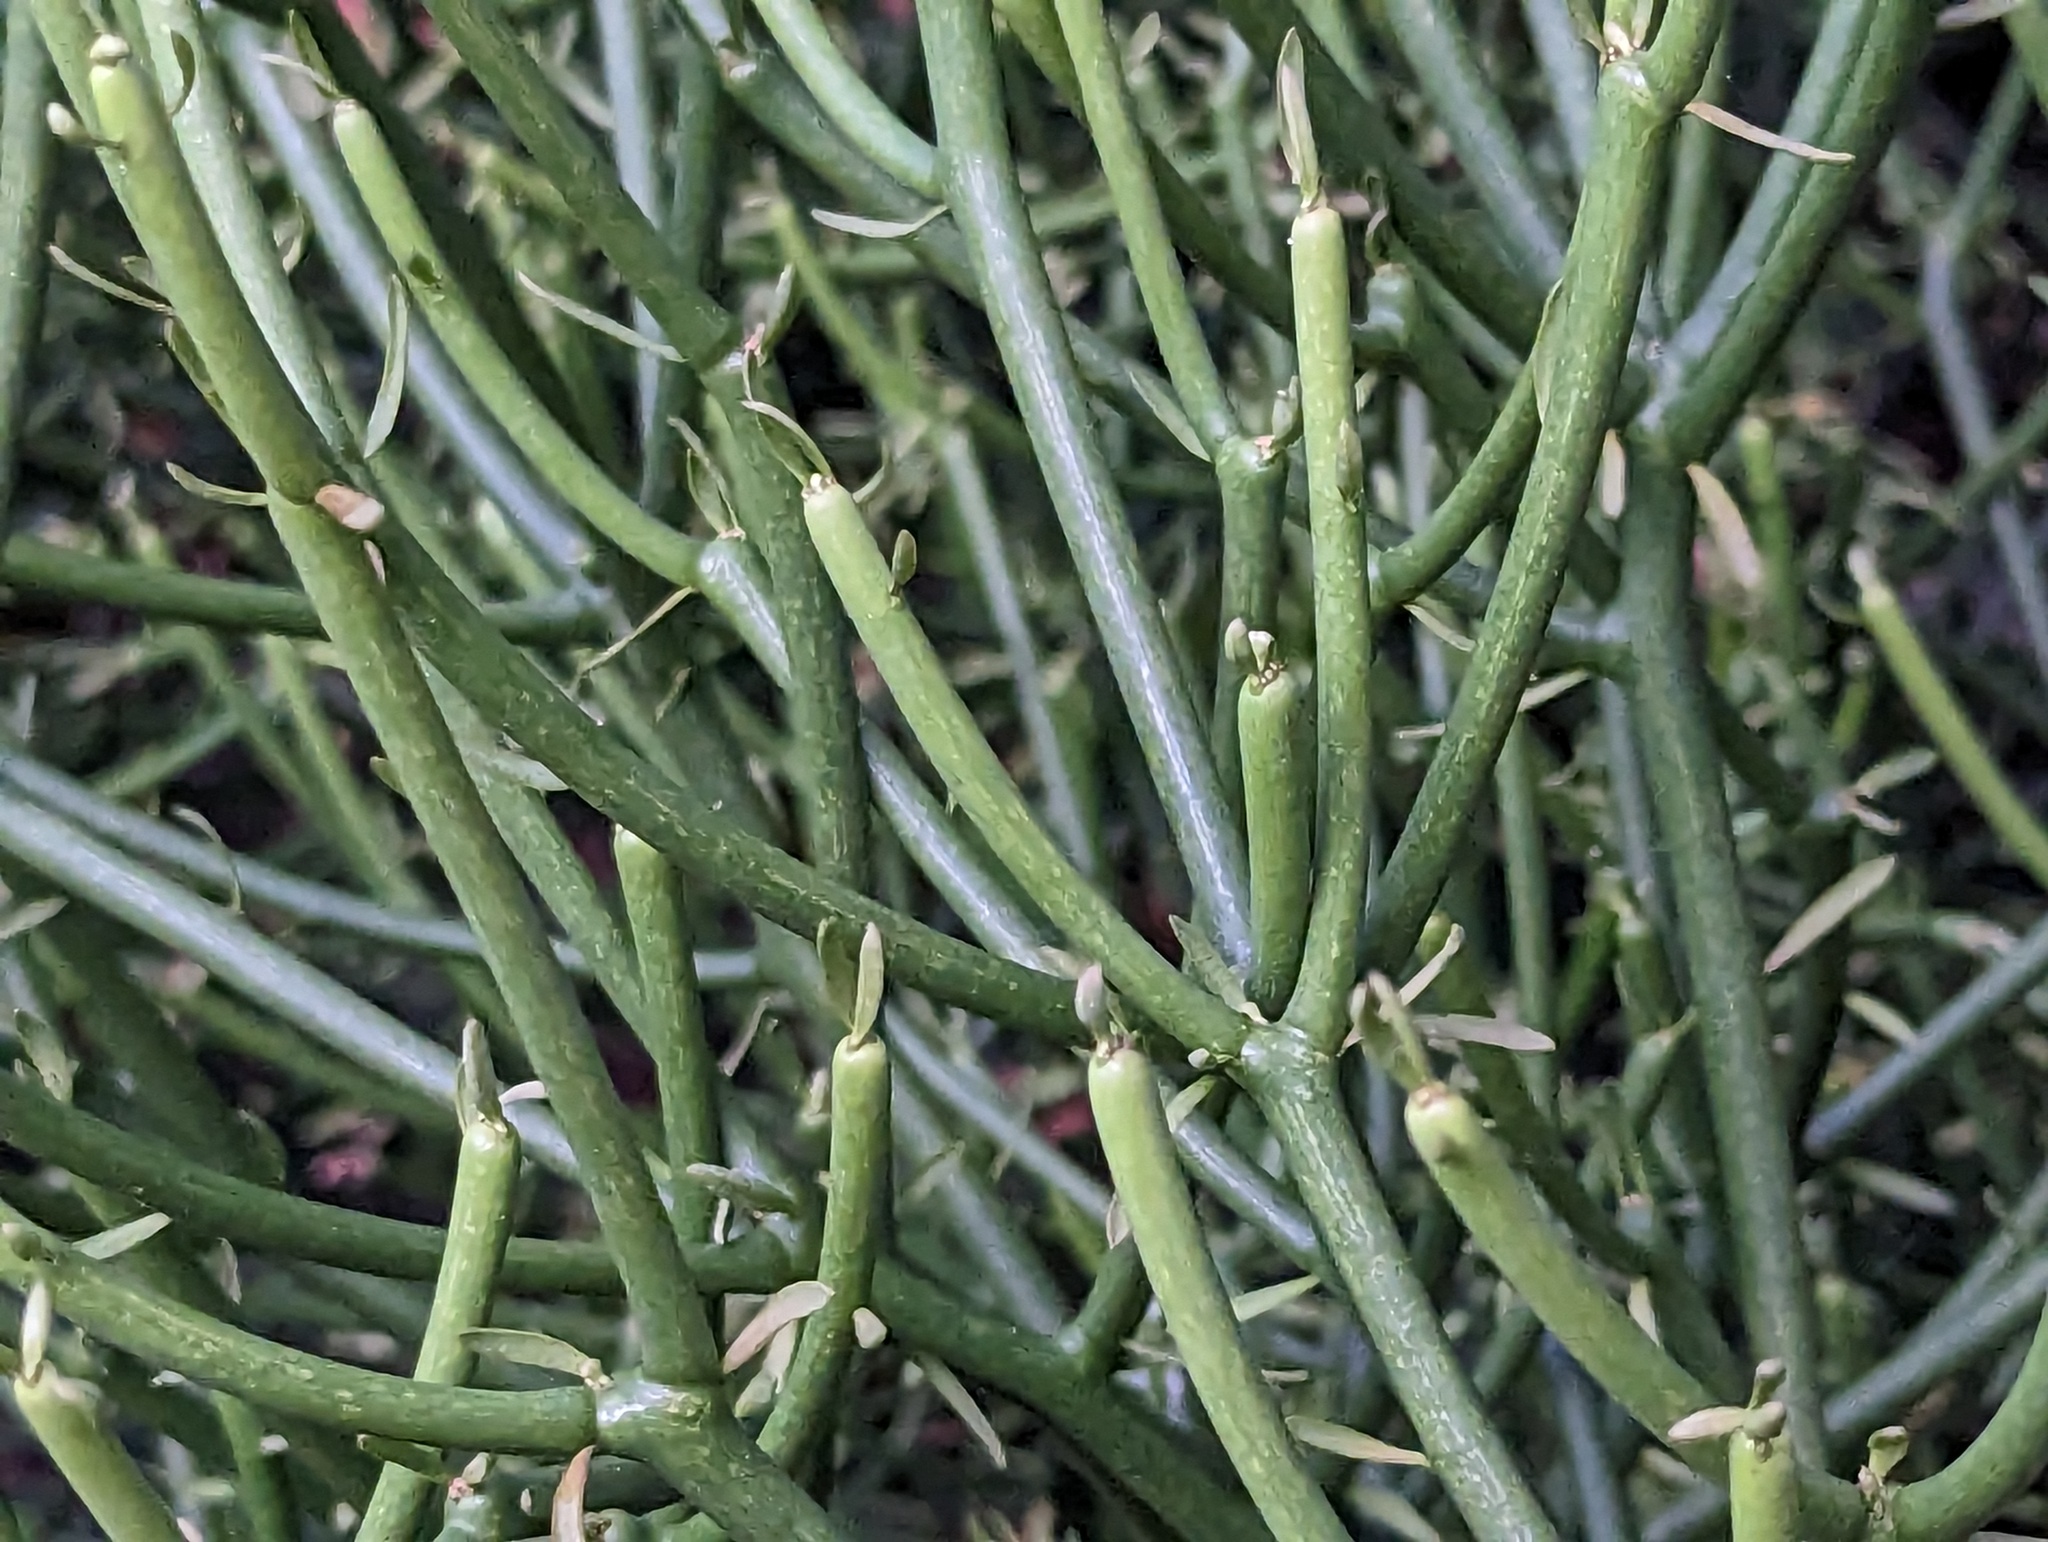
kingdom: Plantae
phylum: Tracheophyta
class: Magnoliopsida
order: Malpighiales
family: Euphorbiaceae
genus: Euphorbia
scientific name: Euphorbia tirucalli
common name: Indiantree spurge
